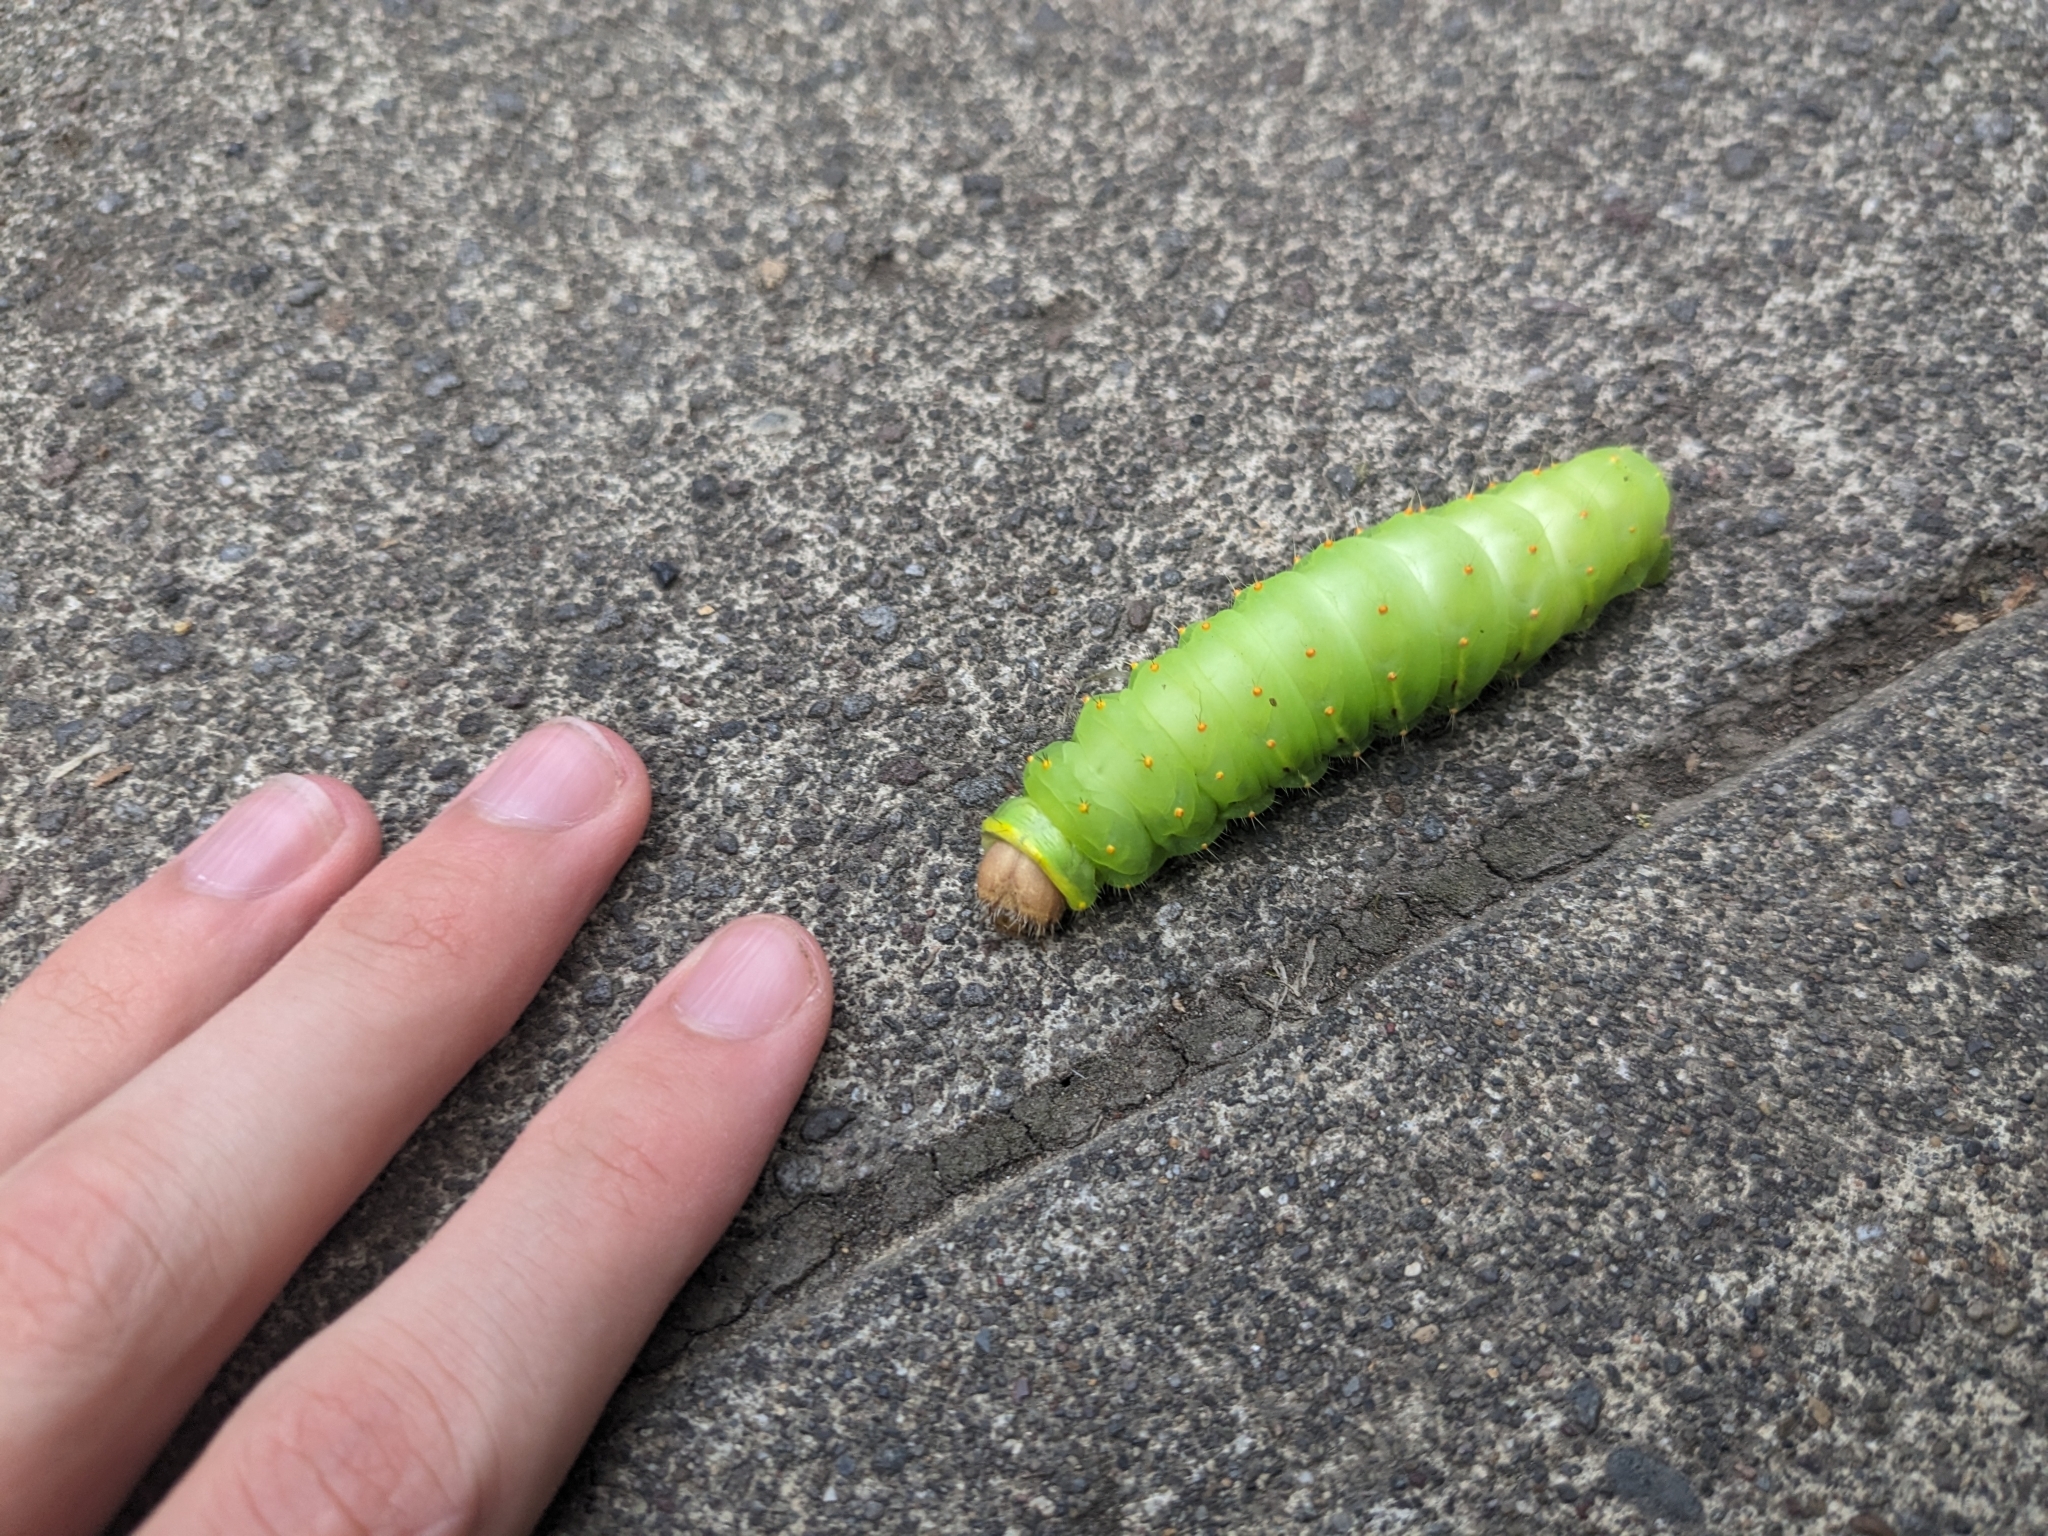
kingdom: Animalia
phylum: Arthropoda
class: Insecta
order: Lepidoptera
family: Saturniidae
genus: Antheraea
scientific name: Antheraea polyphemus
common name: Polyphemus moth
